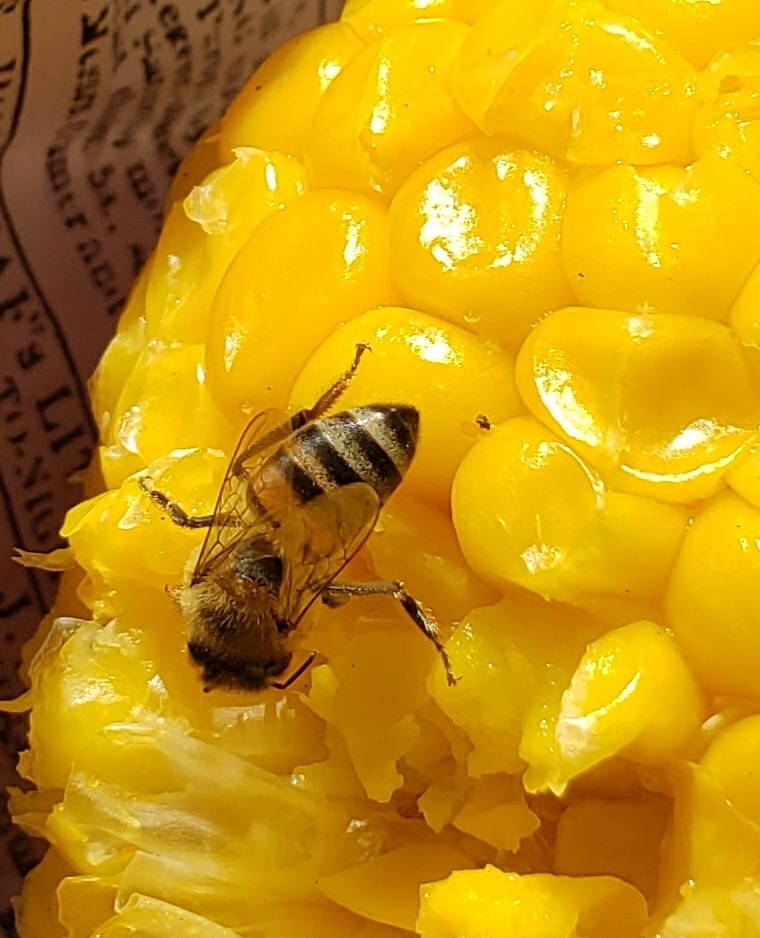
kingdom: Animalia
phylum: Arthropoda
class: Insecta
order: Hymenoptera
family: Apidae
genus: Apis
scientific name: Apis mellifera
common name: Honey bee
